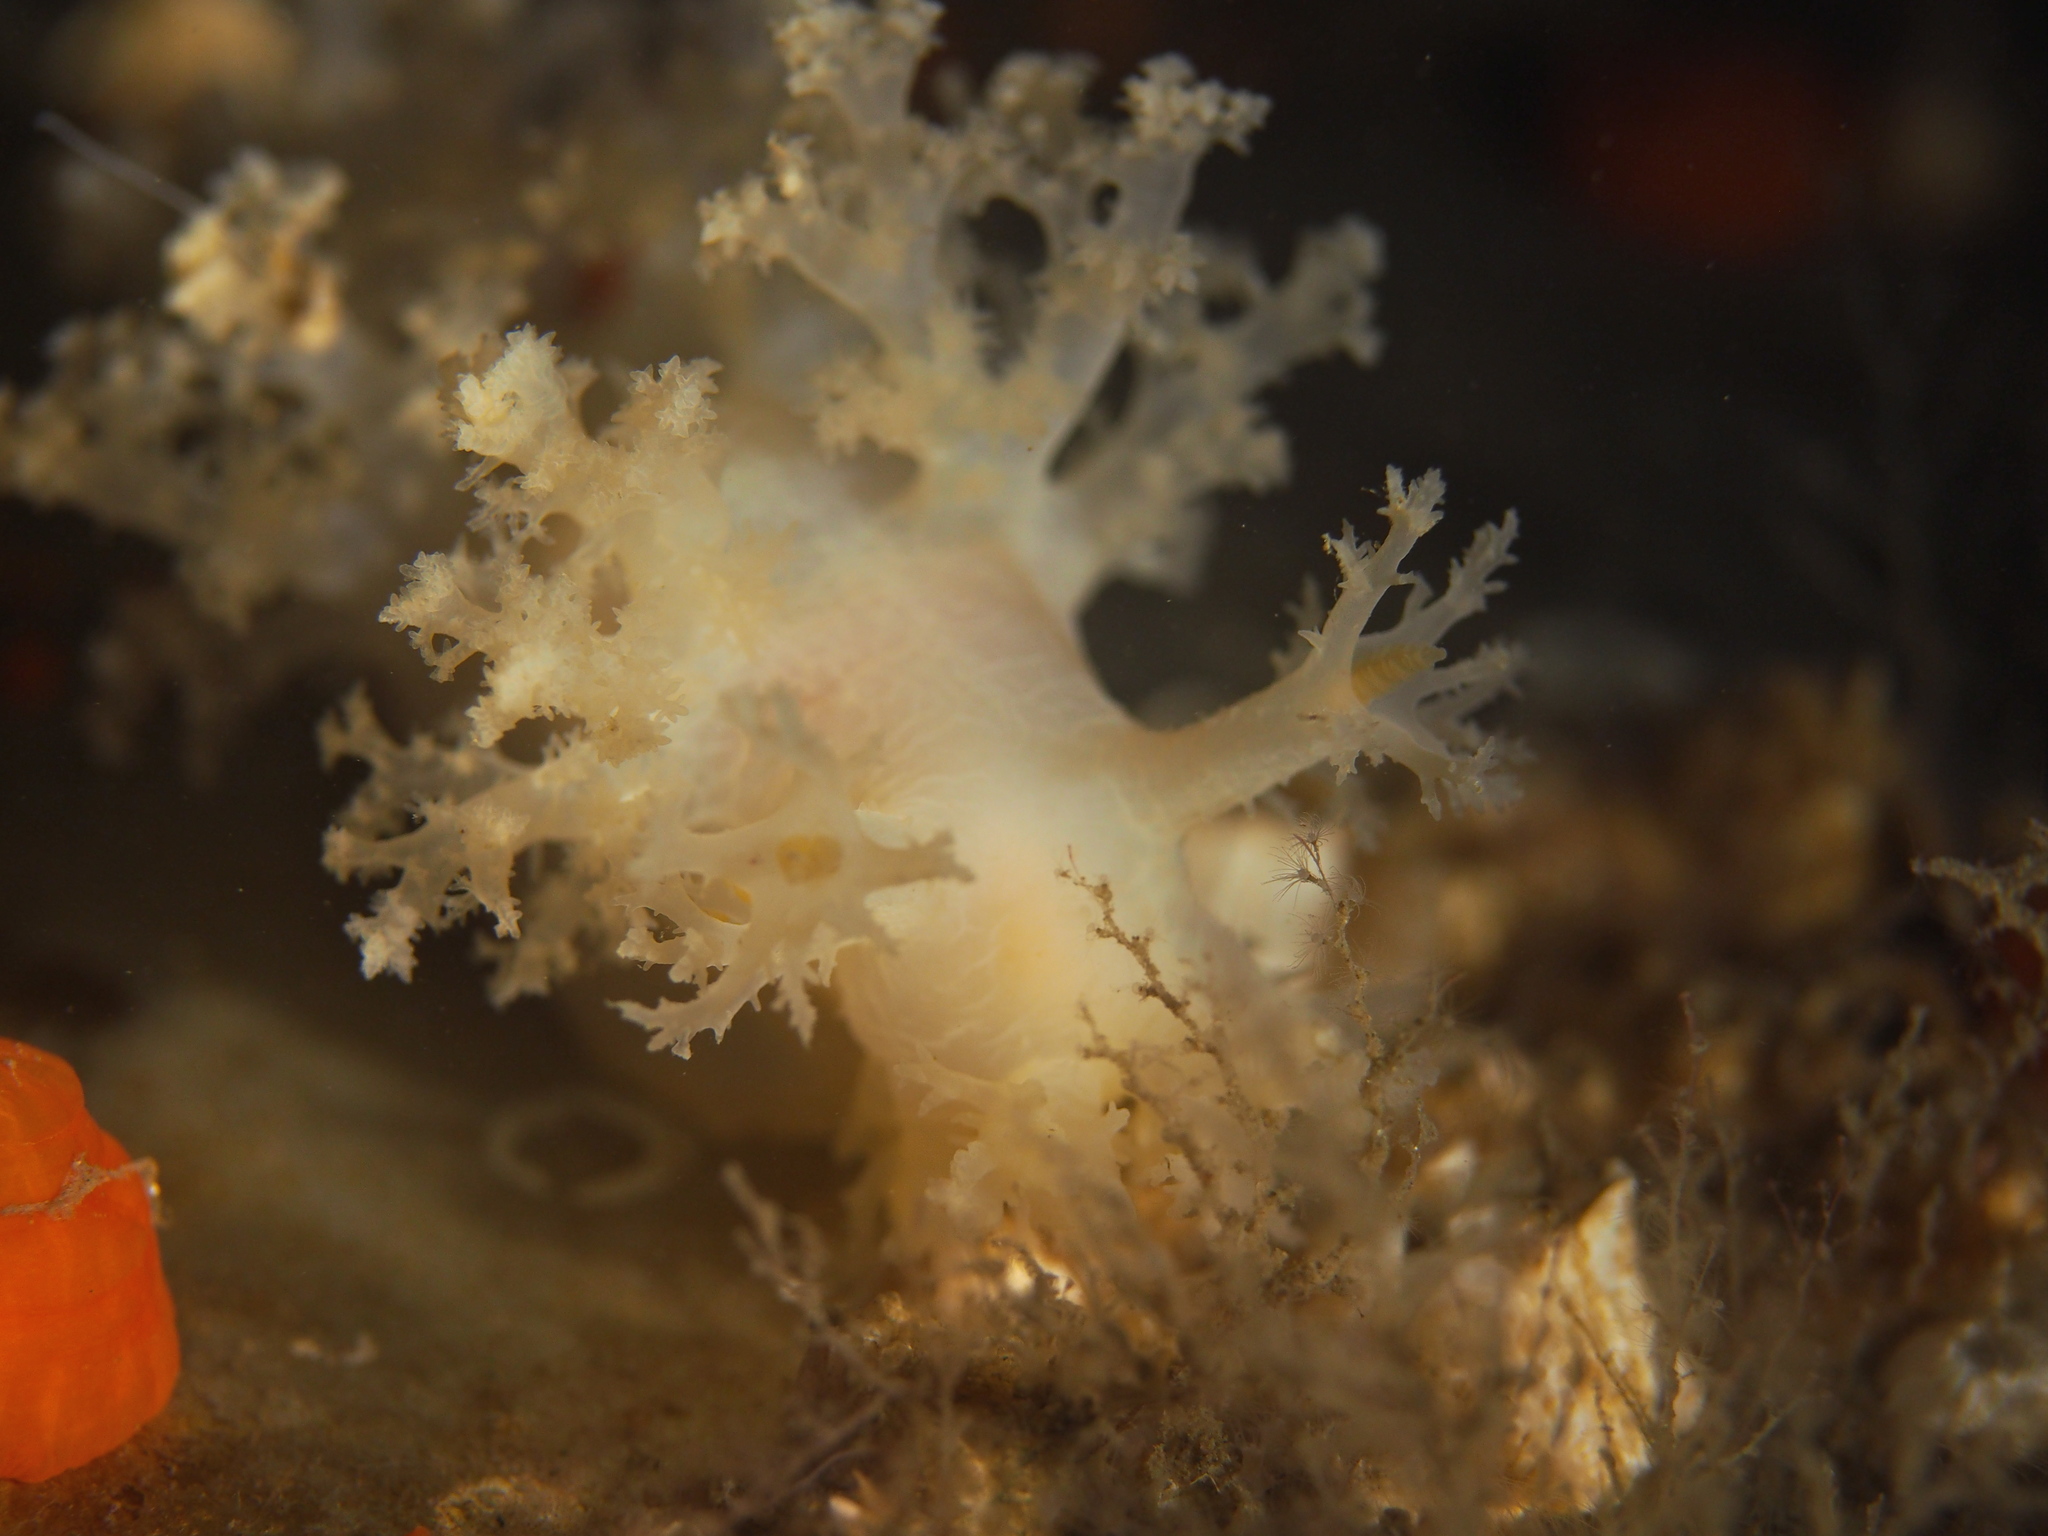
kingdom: Animalia
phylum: Mollusca
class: Gastropoda
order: Nudibranchia
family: Dendronotidae
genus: Dendronotus
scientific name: Dendronotus lacteus
